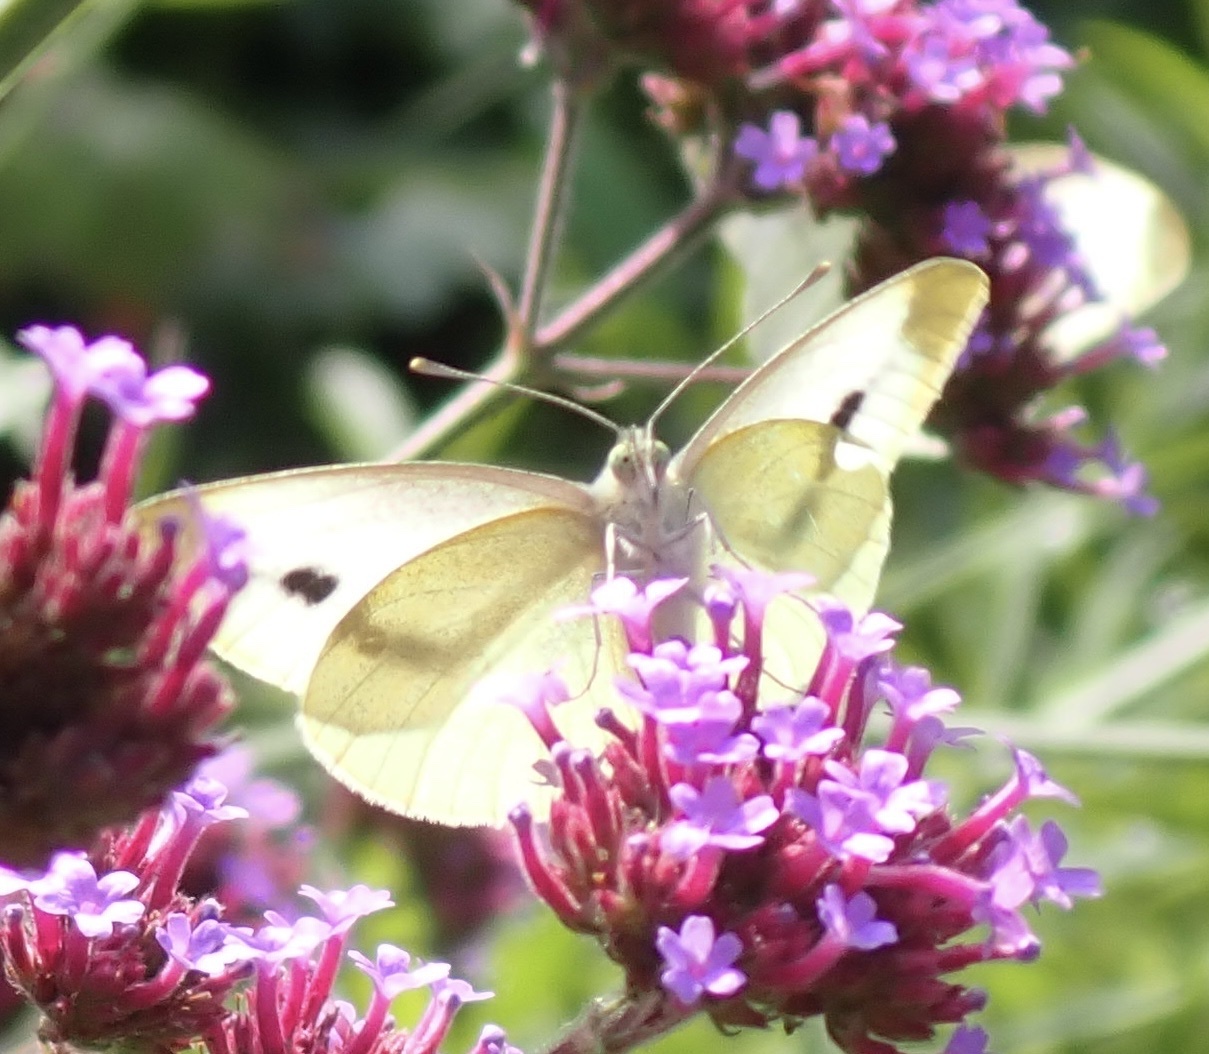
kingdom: Animalia
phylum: Arthropoda
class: Insecta
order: Lepidoptera
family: Pieridae
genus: Pieris
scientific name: Pieris rapae
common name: Small white
